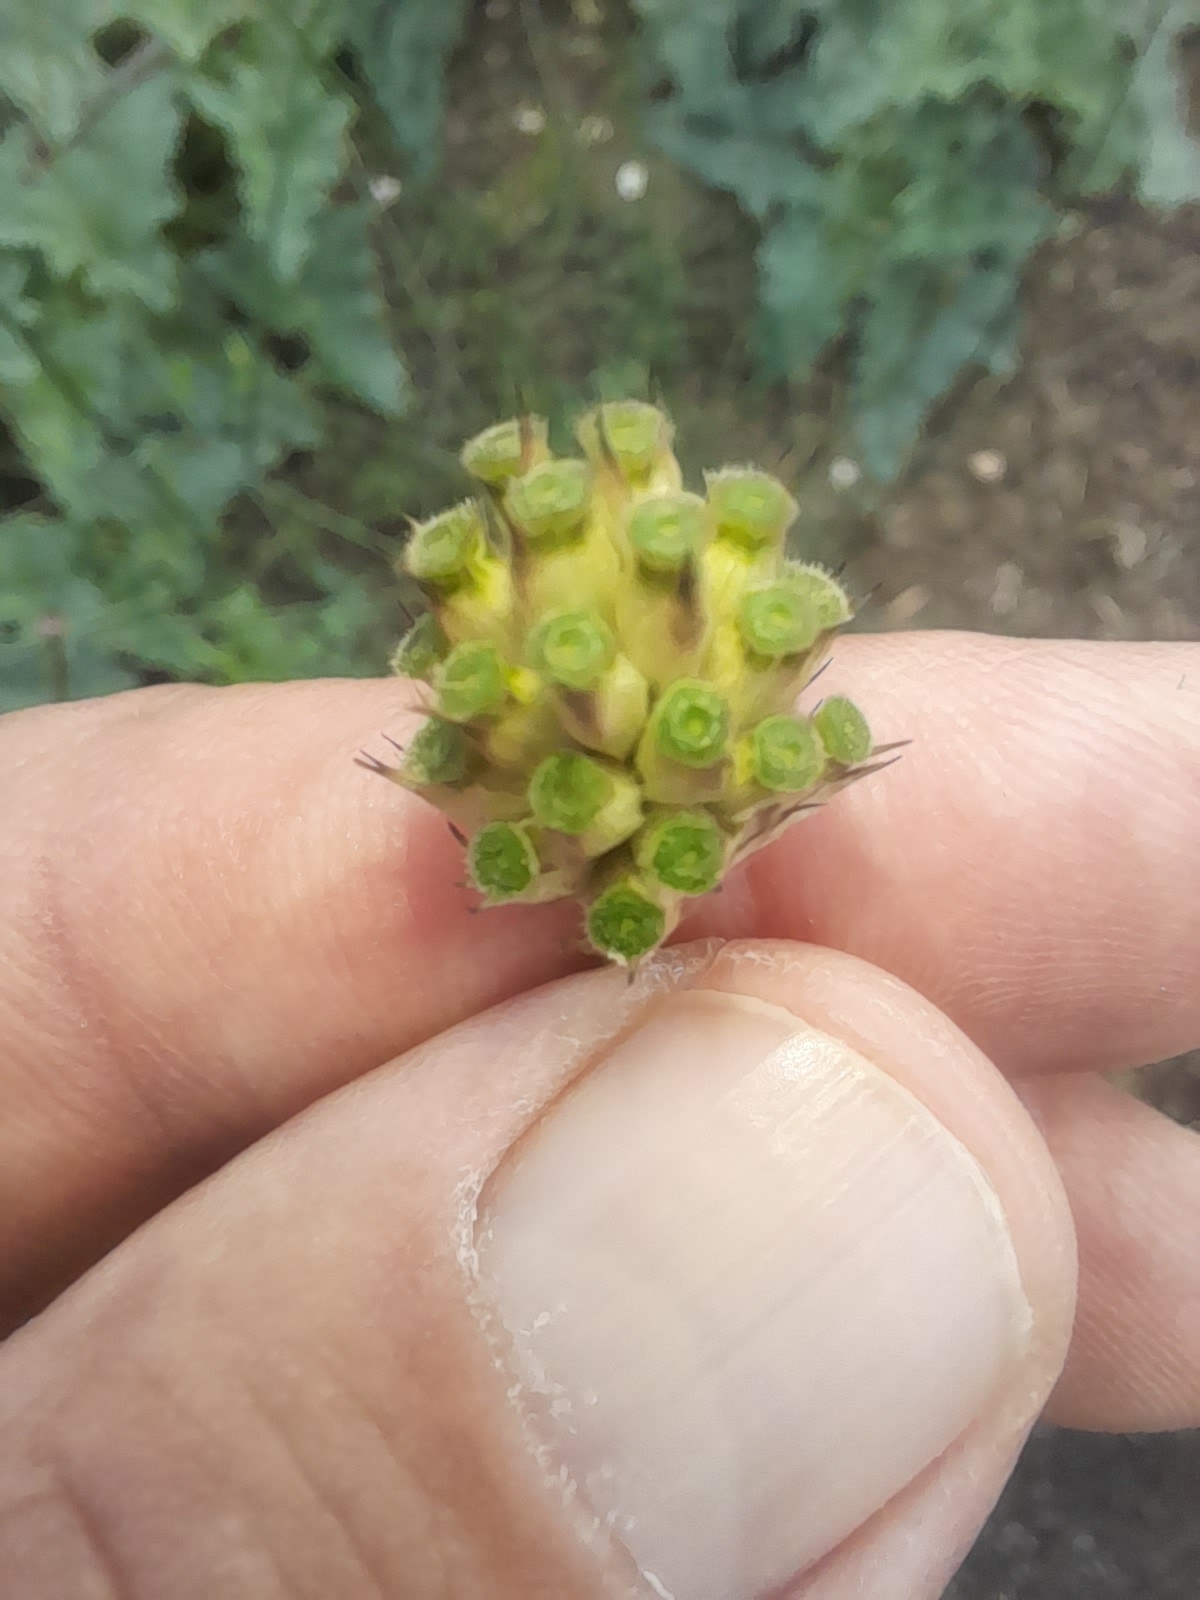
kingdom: Plantae
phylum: Tracheophyta
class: Magnoliopsida
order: Dipsacales
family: Caprifoliaceae
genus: Cephalaria
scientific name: Cephalaria transsylvanica
